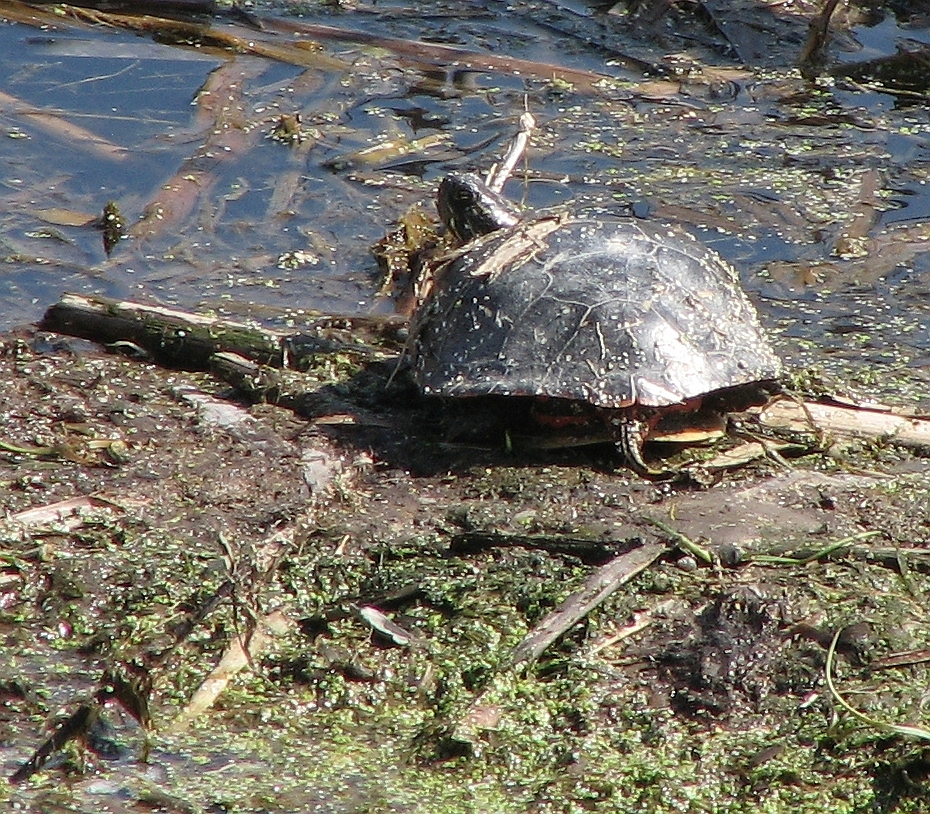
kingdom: Animalia
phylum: Chordata
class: Testudines
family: Emydidae
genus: Chrysemys
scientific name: Chrysemys picta
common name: Painted turtle
